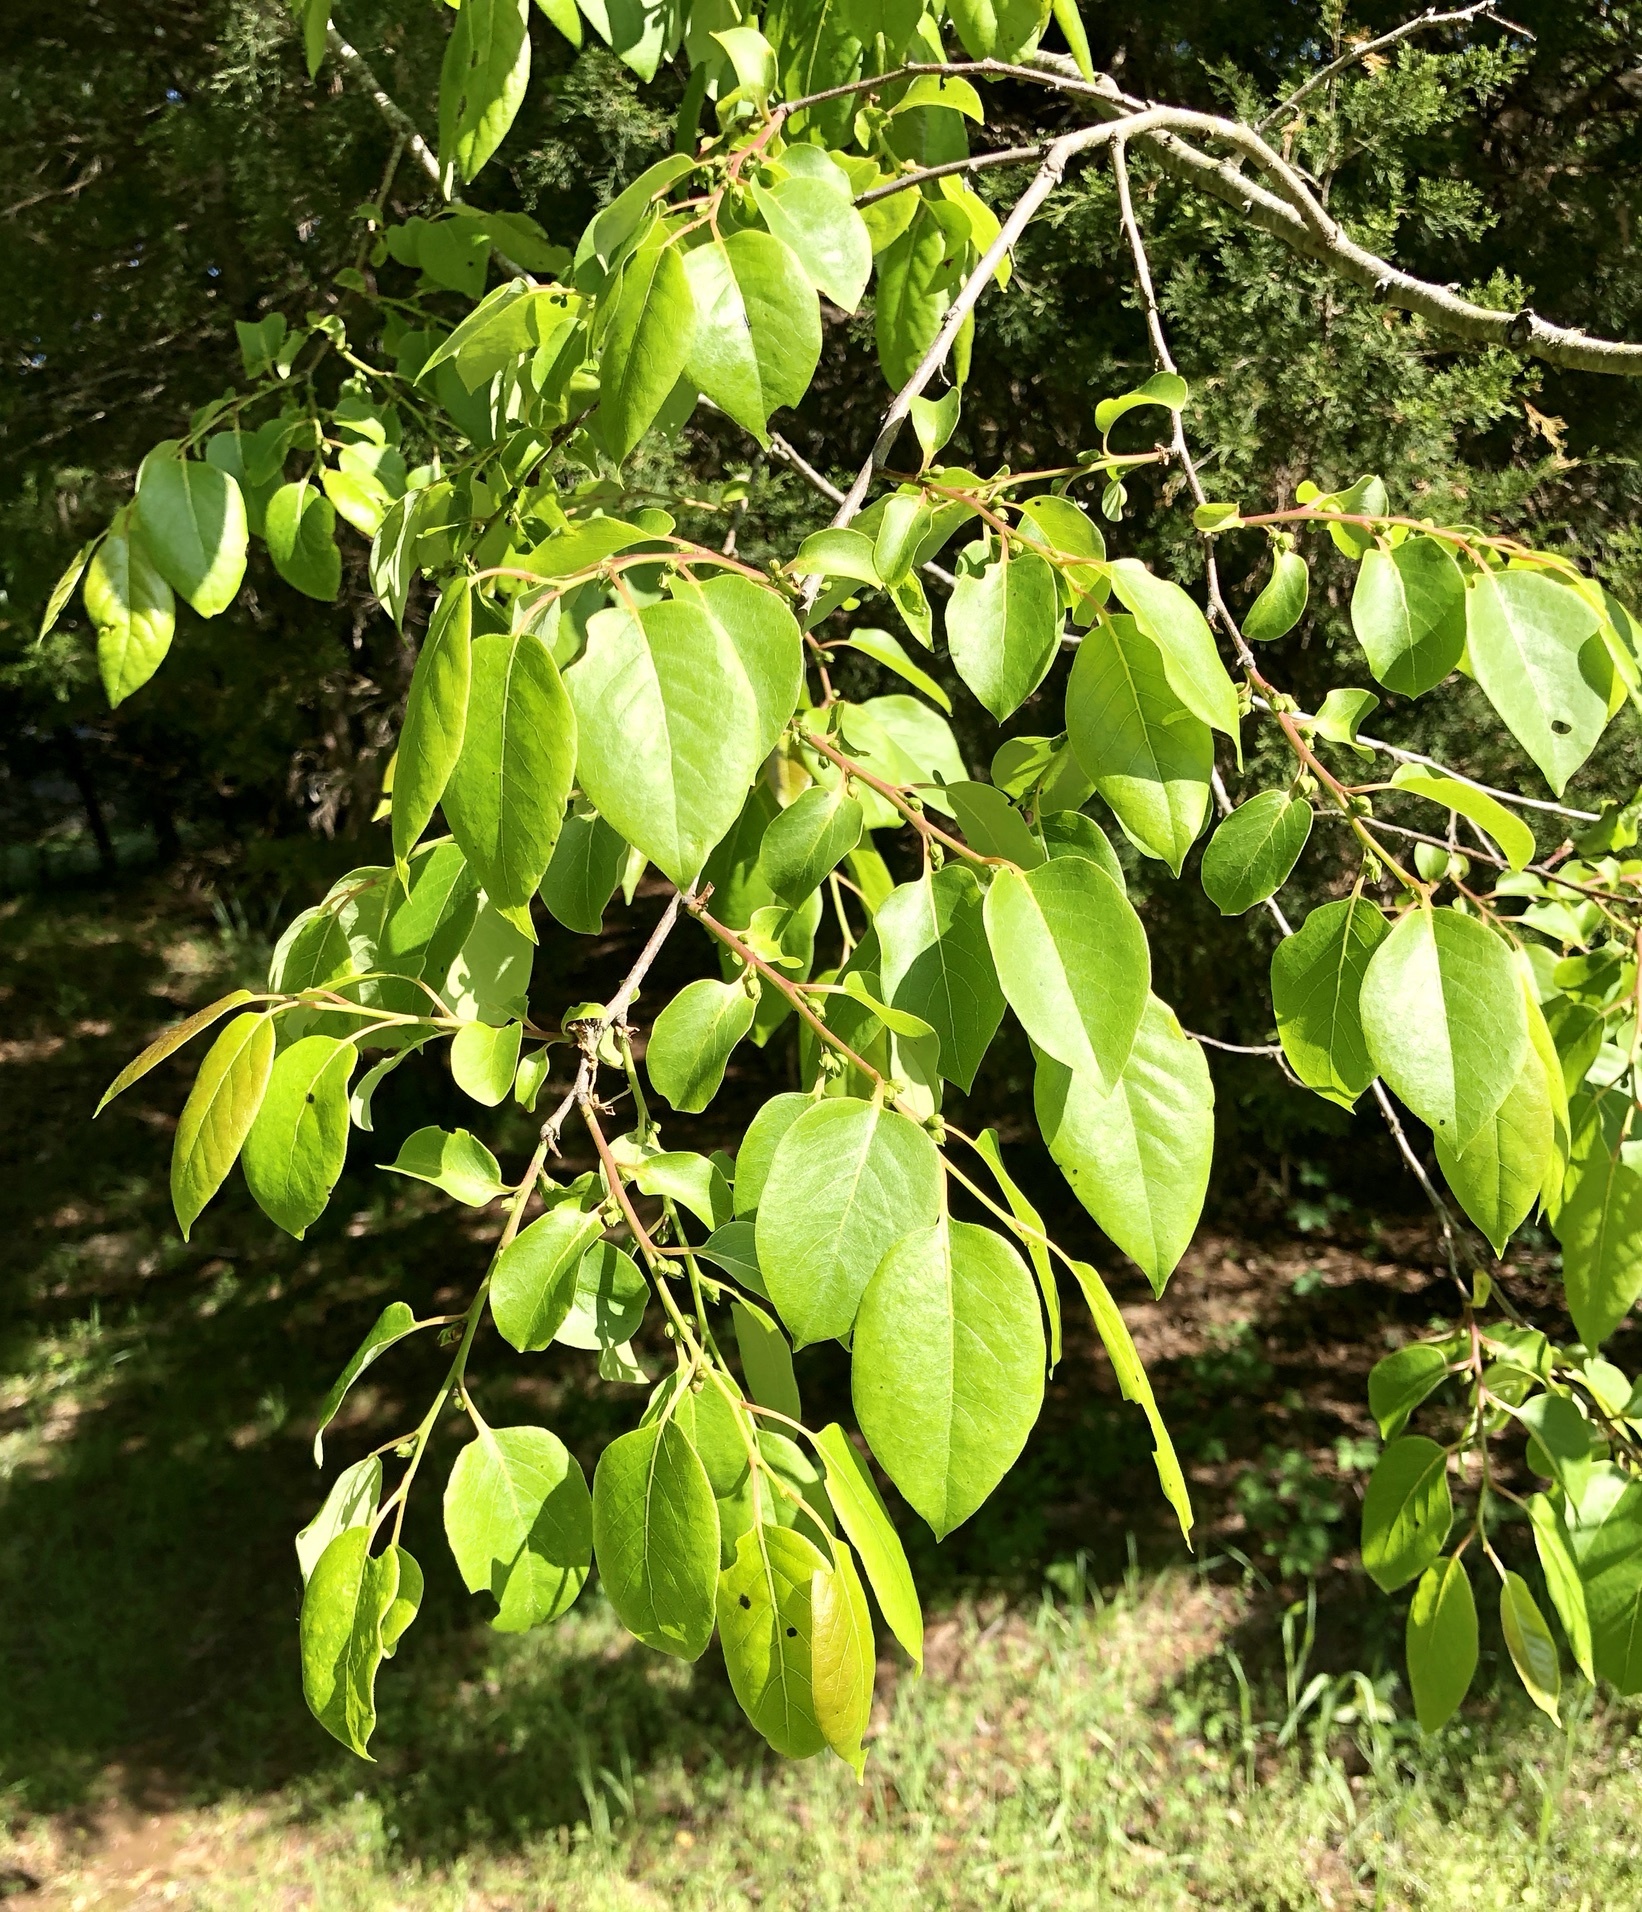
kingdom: Plantae
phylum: Tracheophyta
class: Magnoliopsida
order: Ericales
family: Ebenaceae
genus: Diospyros
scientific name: Diospyros virginiana
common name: Persimmon
